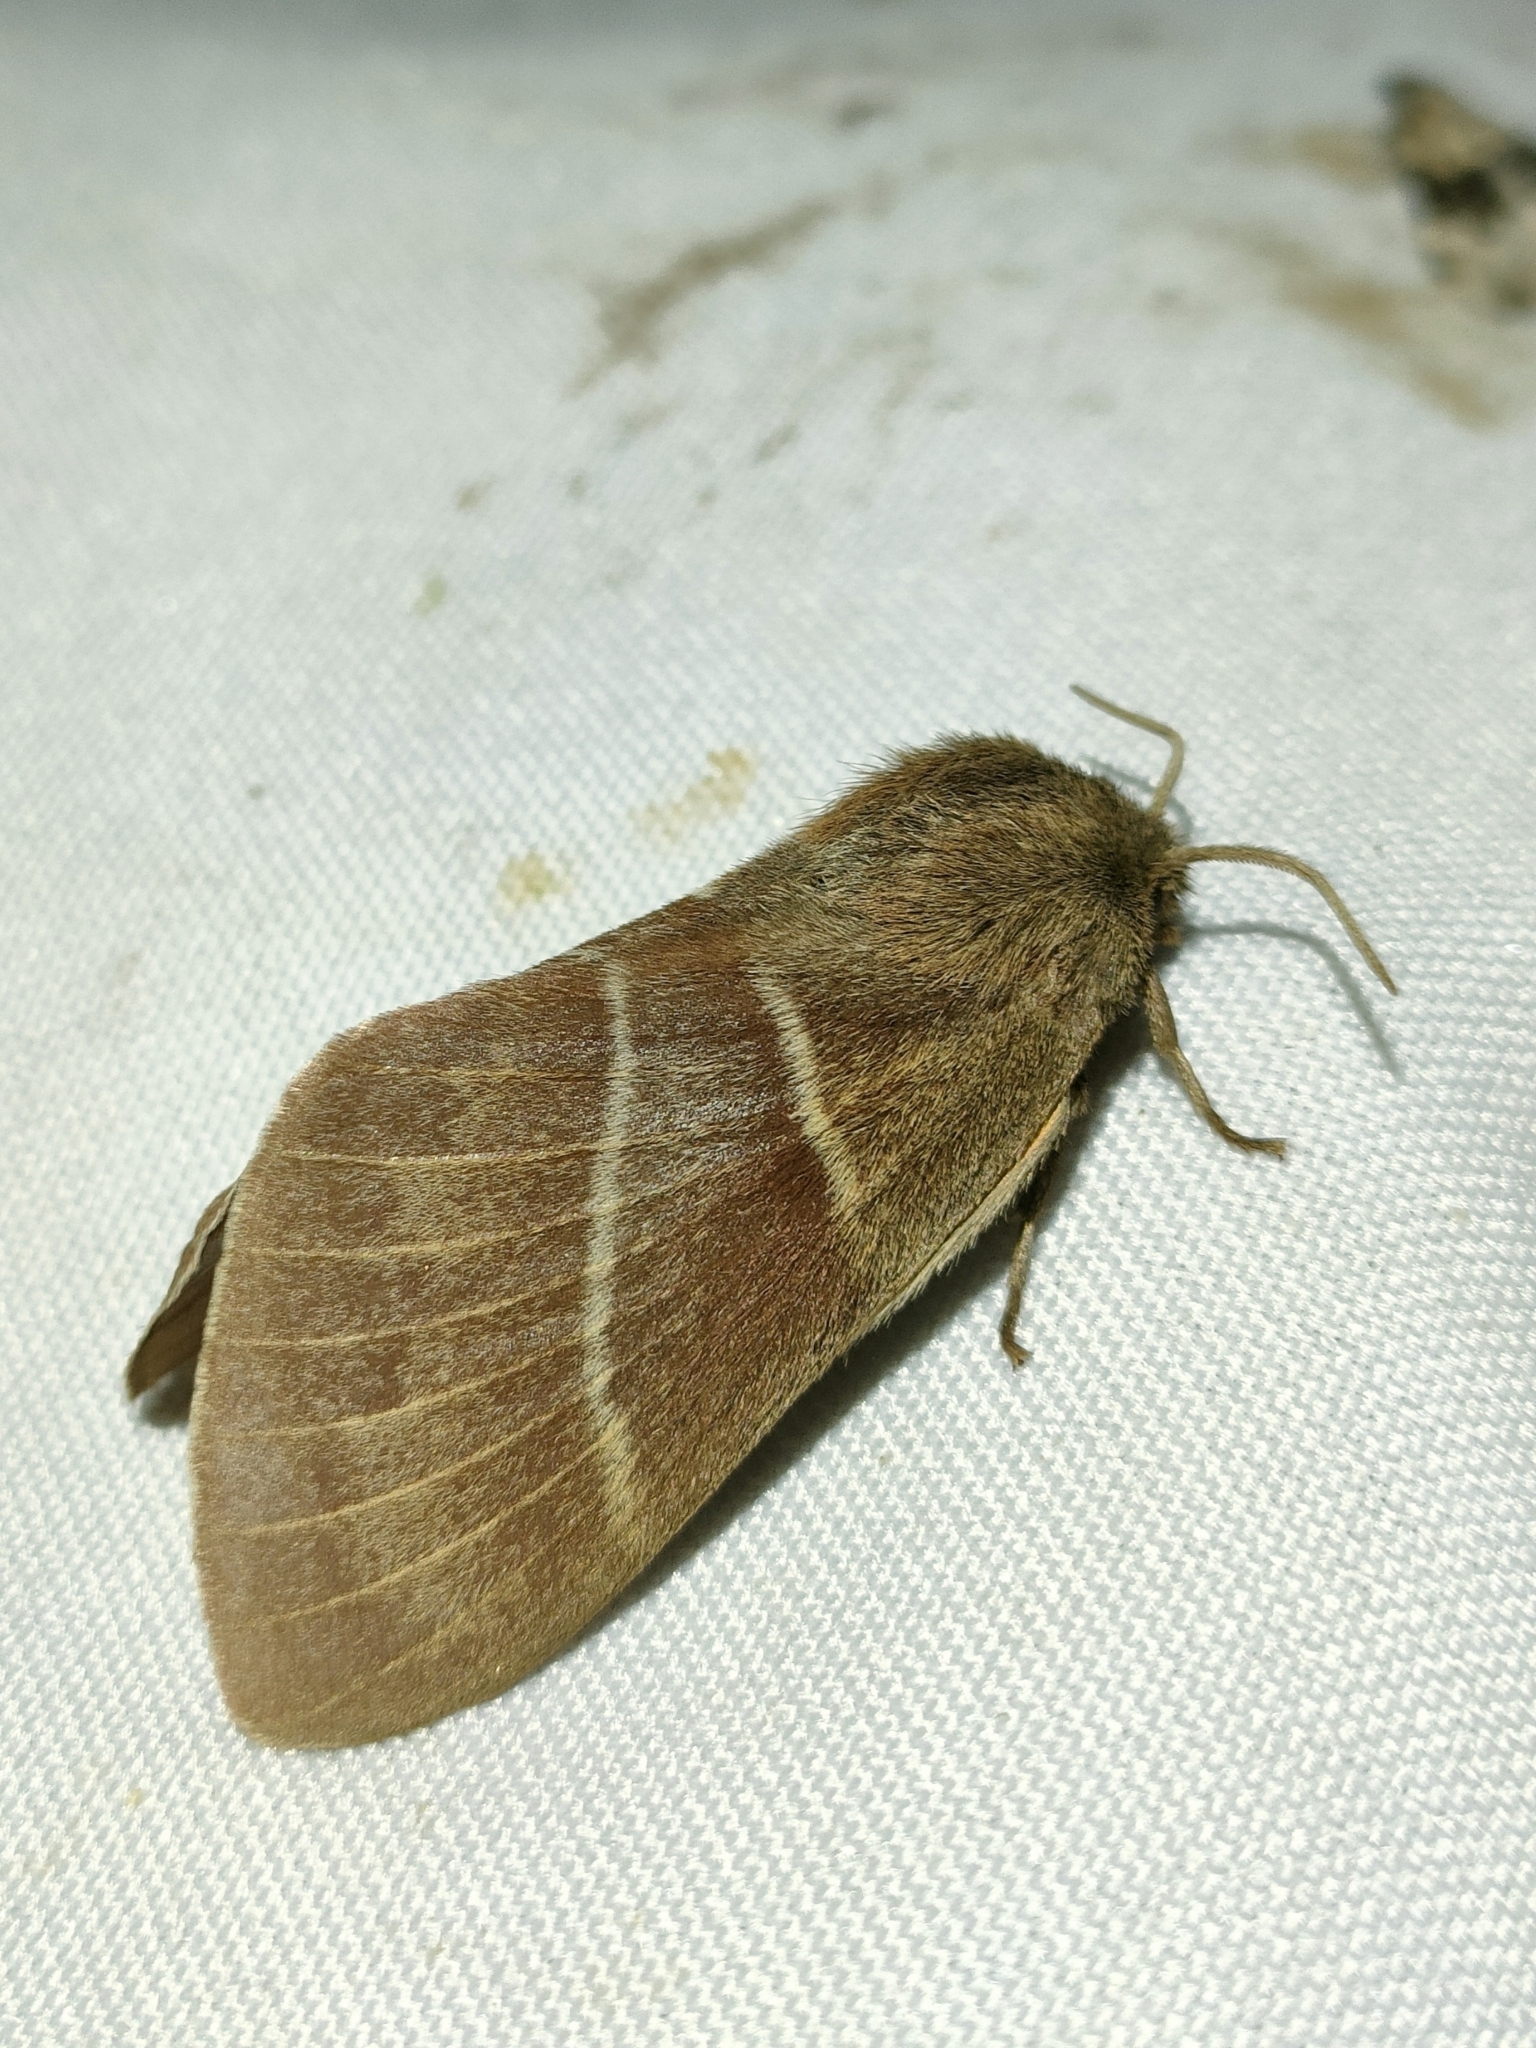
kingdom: Animalia
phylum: Arthropoda
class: Insecta
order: Lepidoptera
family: Lasiocampidae
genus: Macrothylacia
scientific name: Macrothylacia rubi
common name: Fox moth
